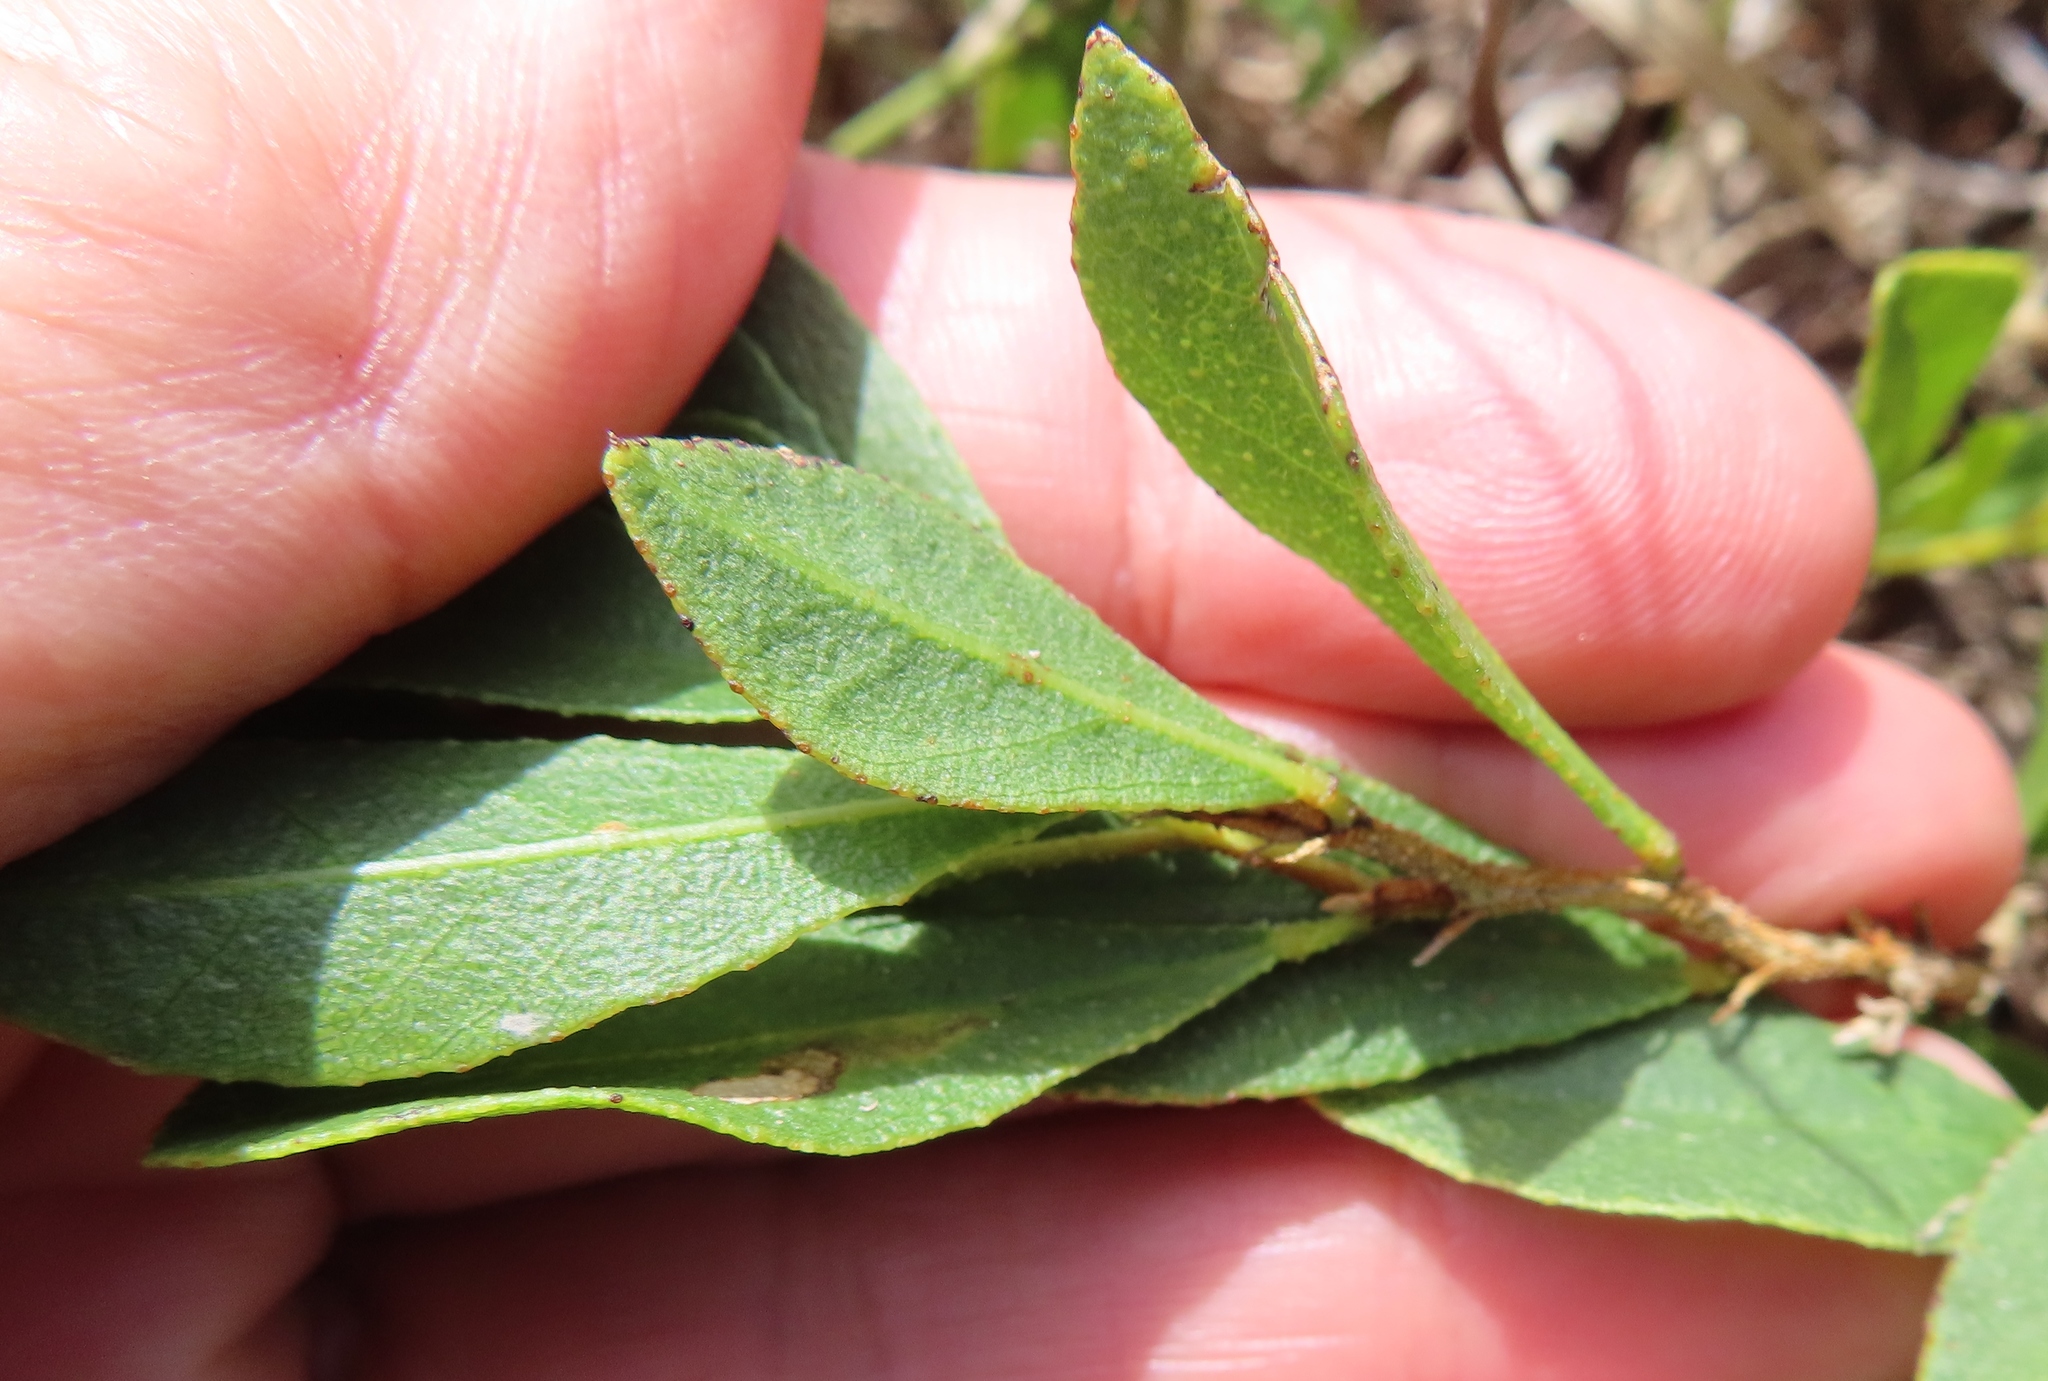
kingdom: Plantae
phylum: Tracheophyta
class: Magnoliopsida
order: Fabales
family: Fabaceae
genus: Psoralea
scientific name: Psoralea rotundifolia
